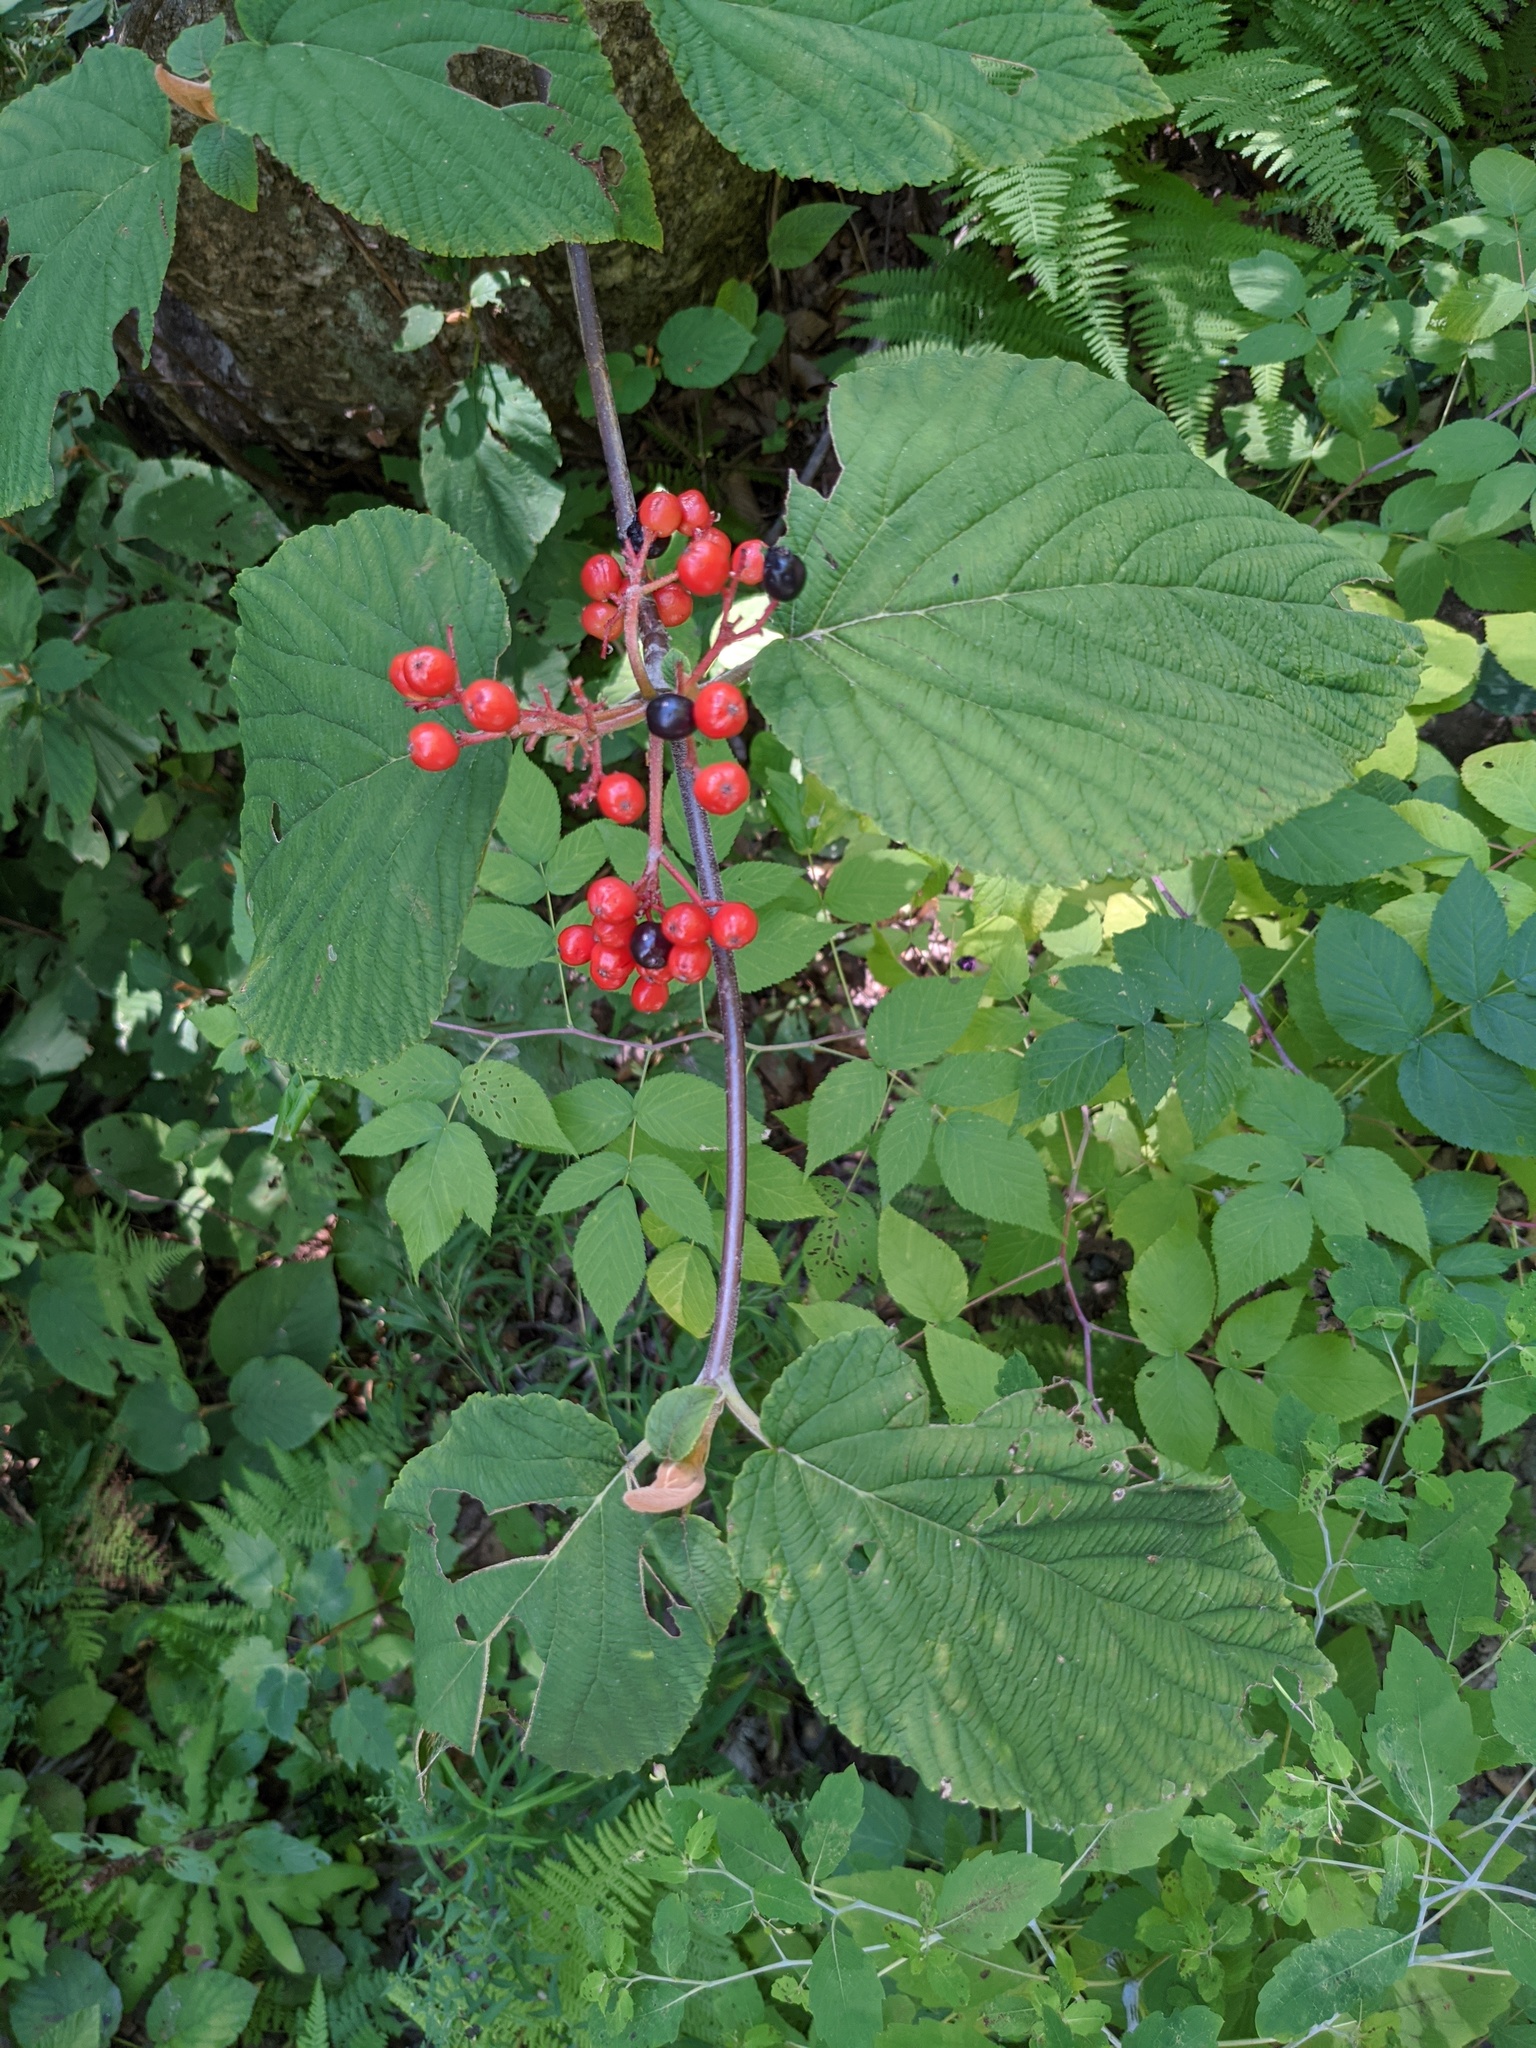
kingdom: Plantae
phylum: Tracheophyta
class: Magnoliopsida
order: Dipsacales
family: Viburnaceae
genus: Viburnum
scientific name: Viburnum lantanoides
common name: Hobblebush
